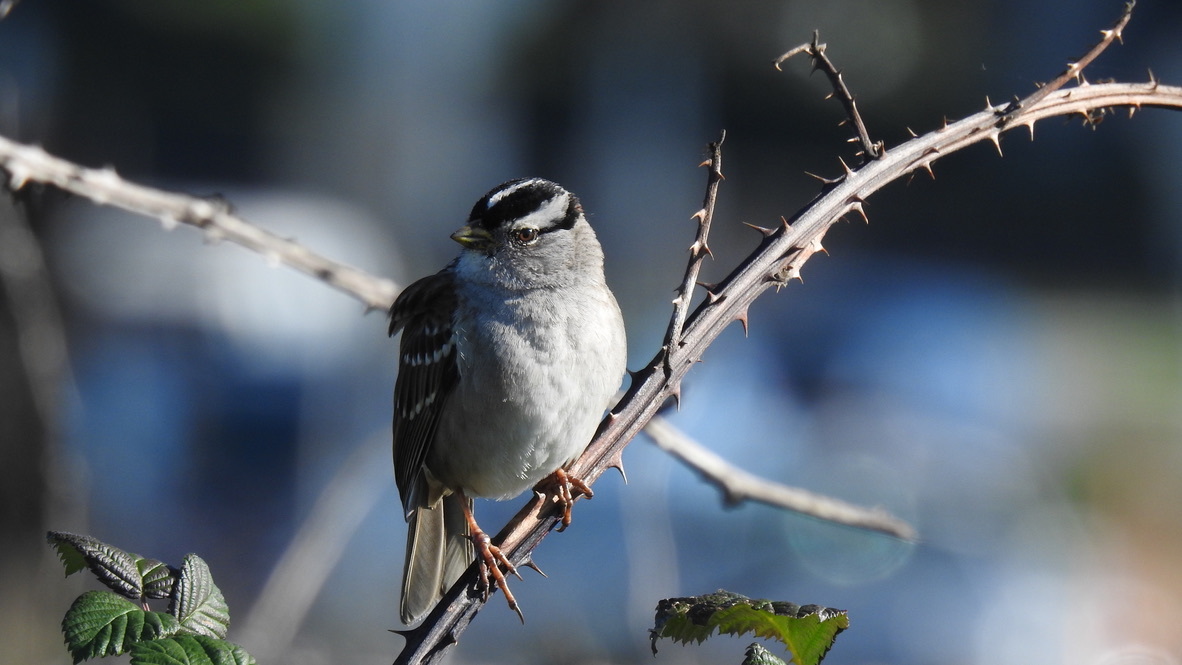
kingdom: Animalia
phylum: Chordata
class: Aves
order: Passeriformes
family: Passerellidae
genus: Zonotrichia
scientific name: Zonotrichia leucophrys
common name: White-crowned sparrow
